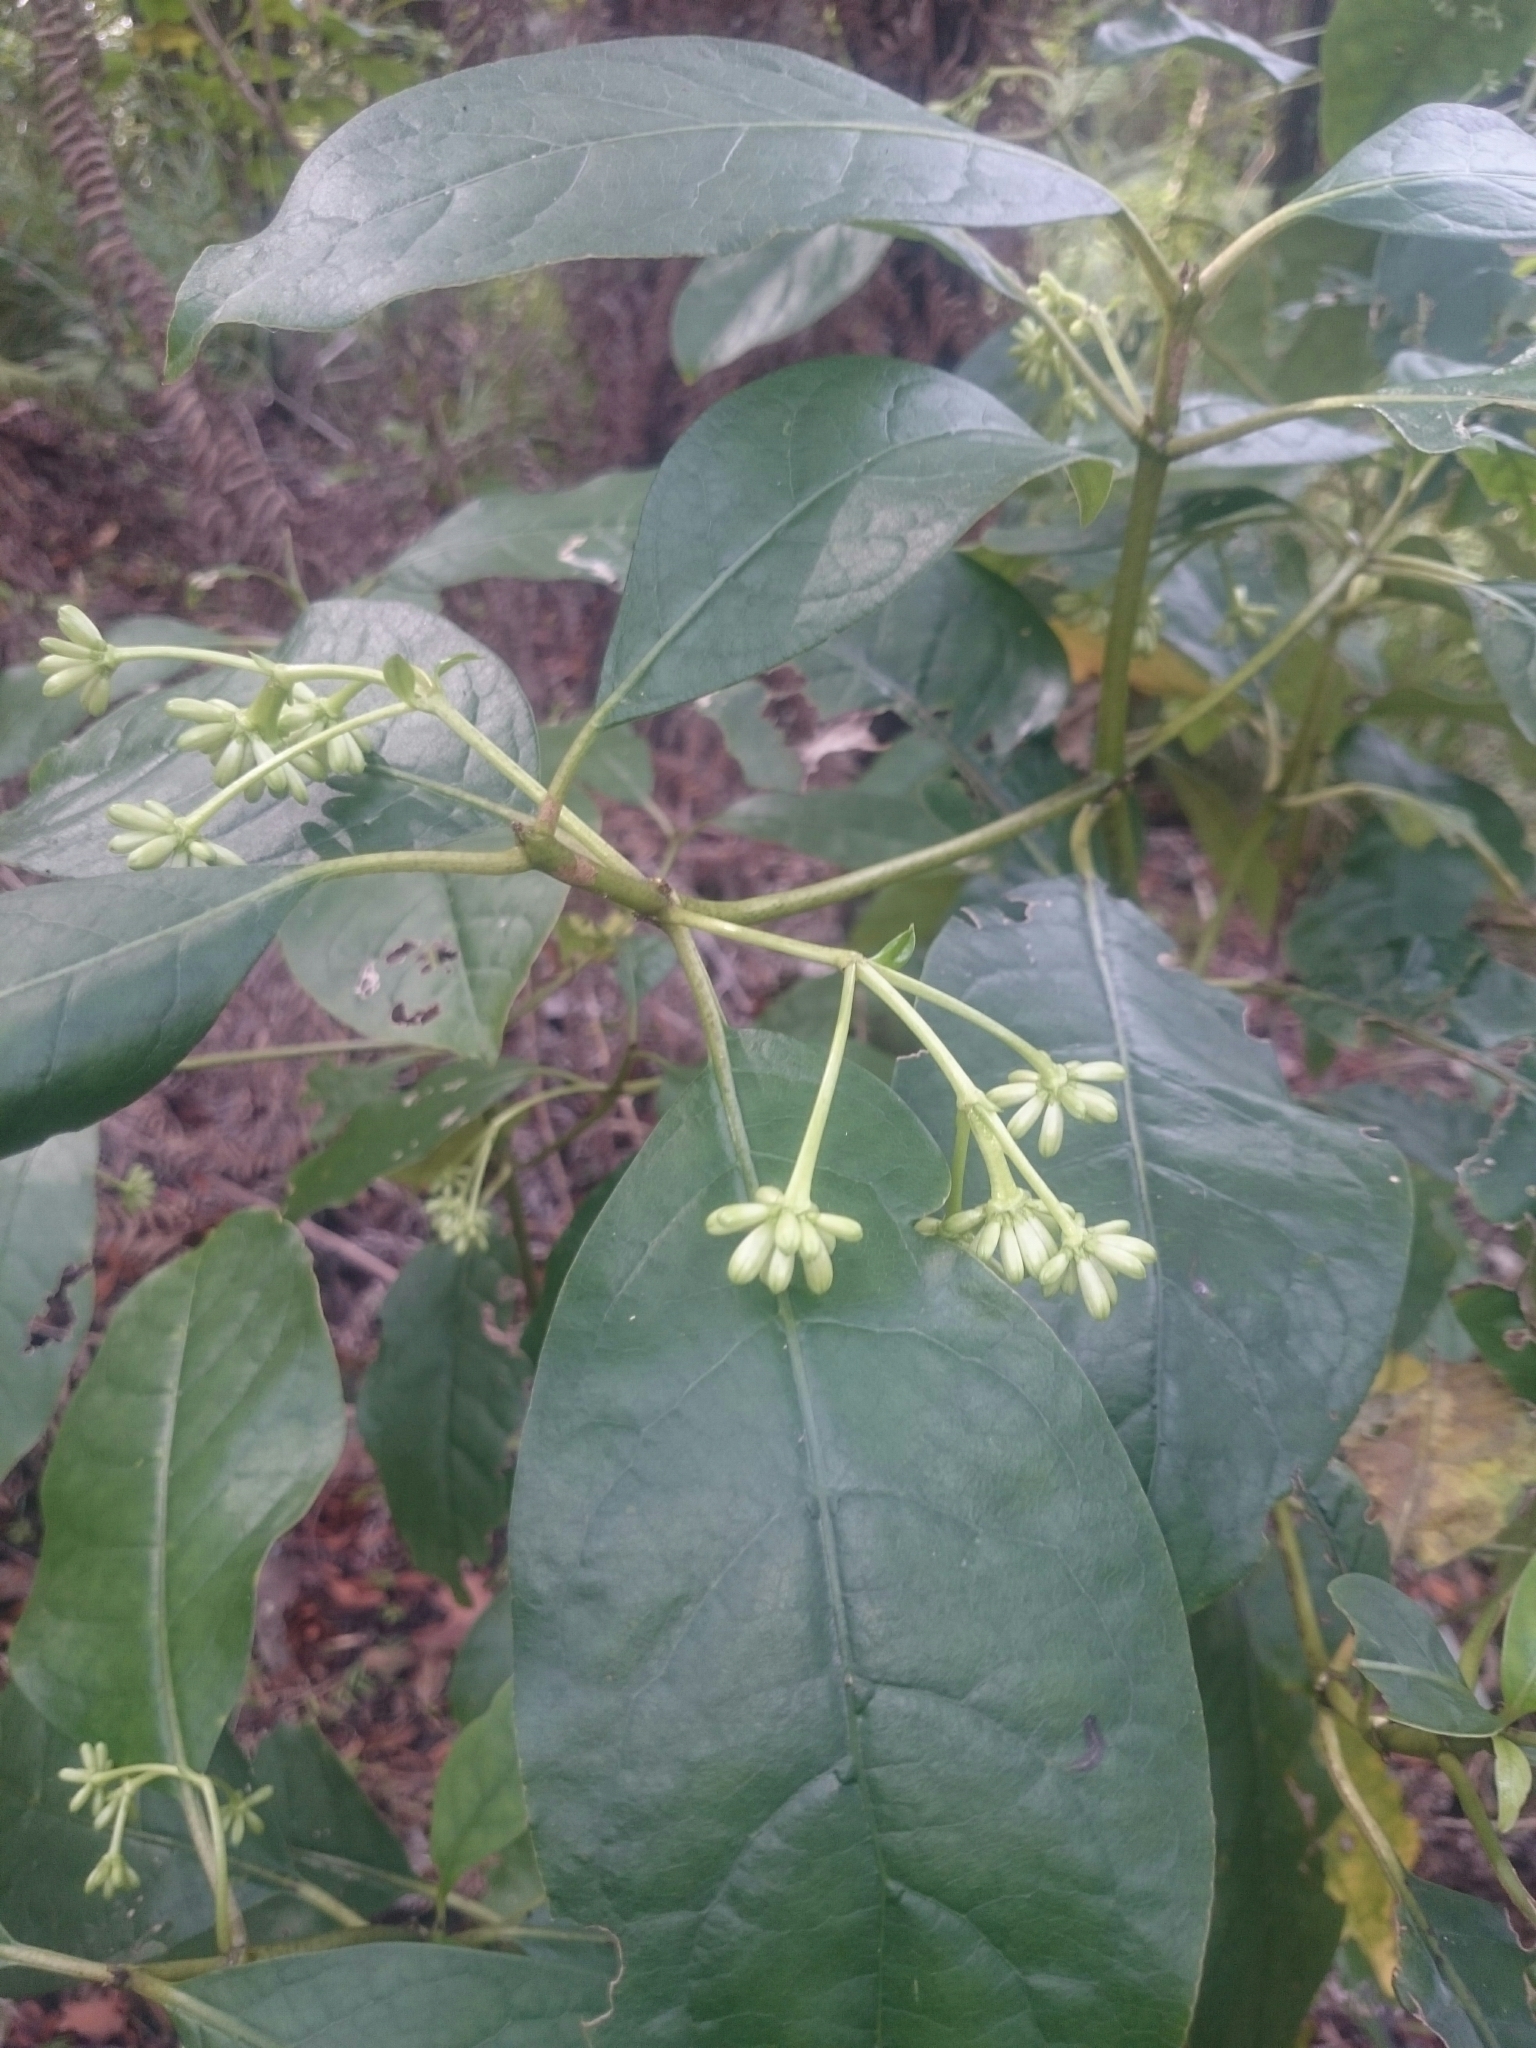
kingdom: Plantae
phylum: Tracheophyta
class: Magnoliopsida
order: Gentianales
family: Rubiaceae
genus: Coprosma
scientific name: Coprosma autumnalis
